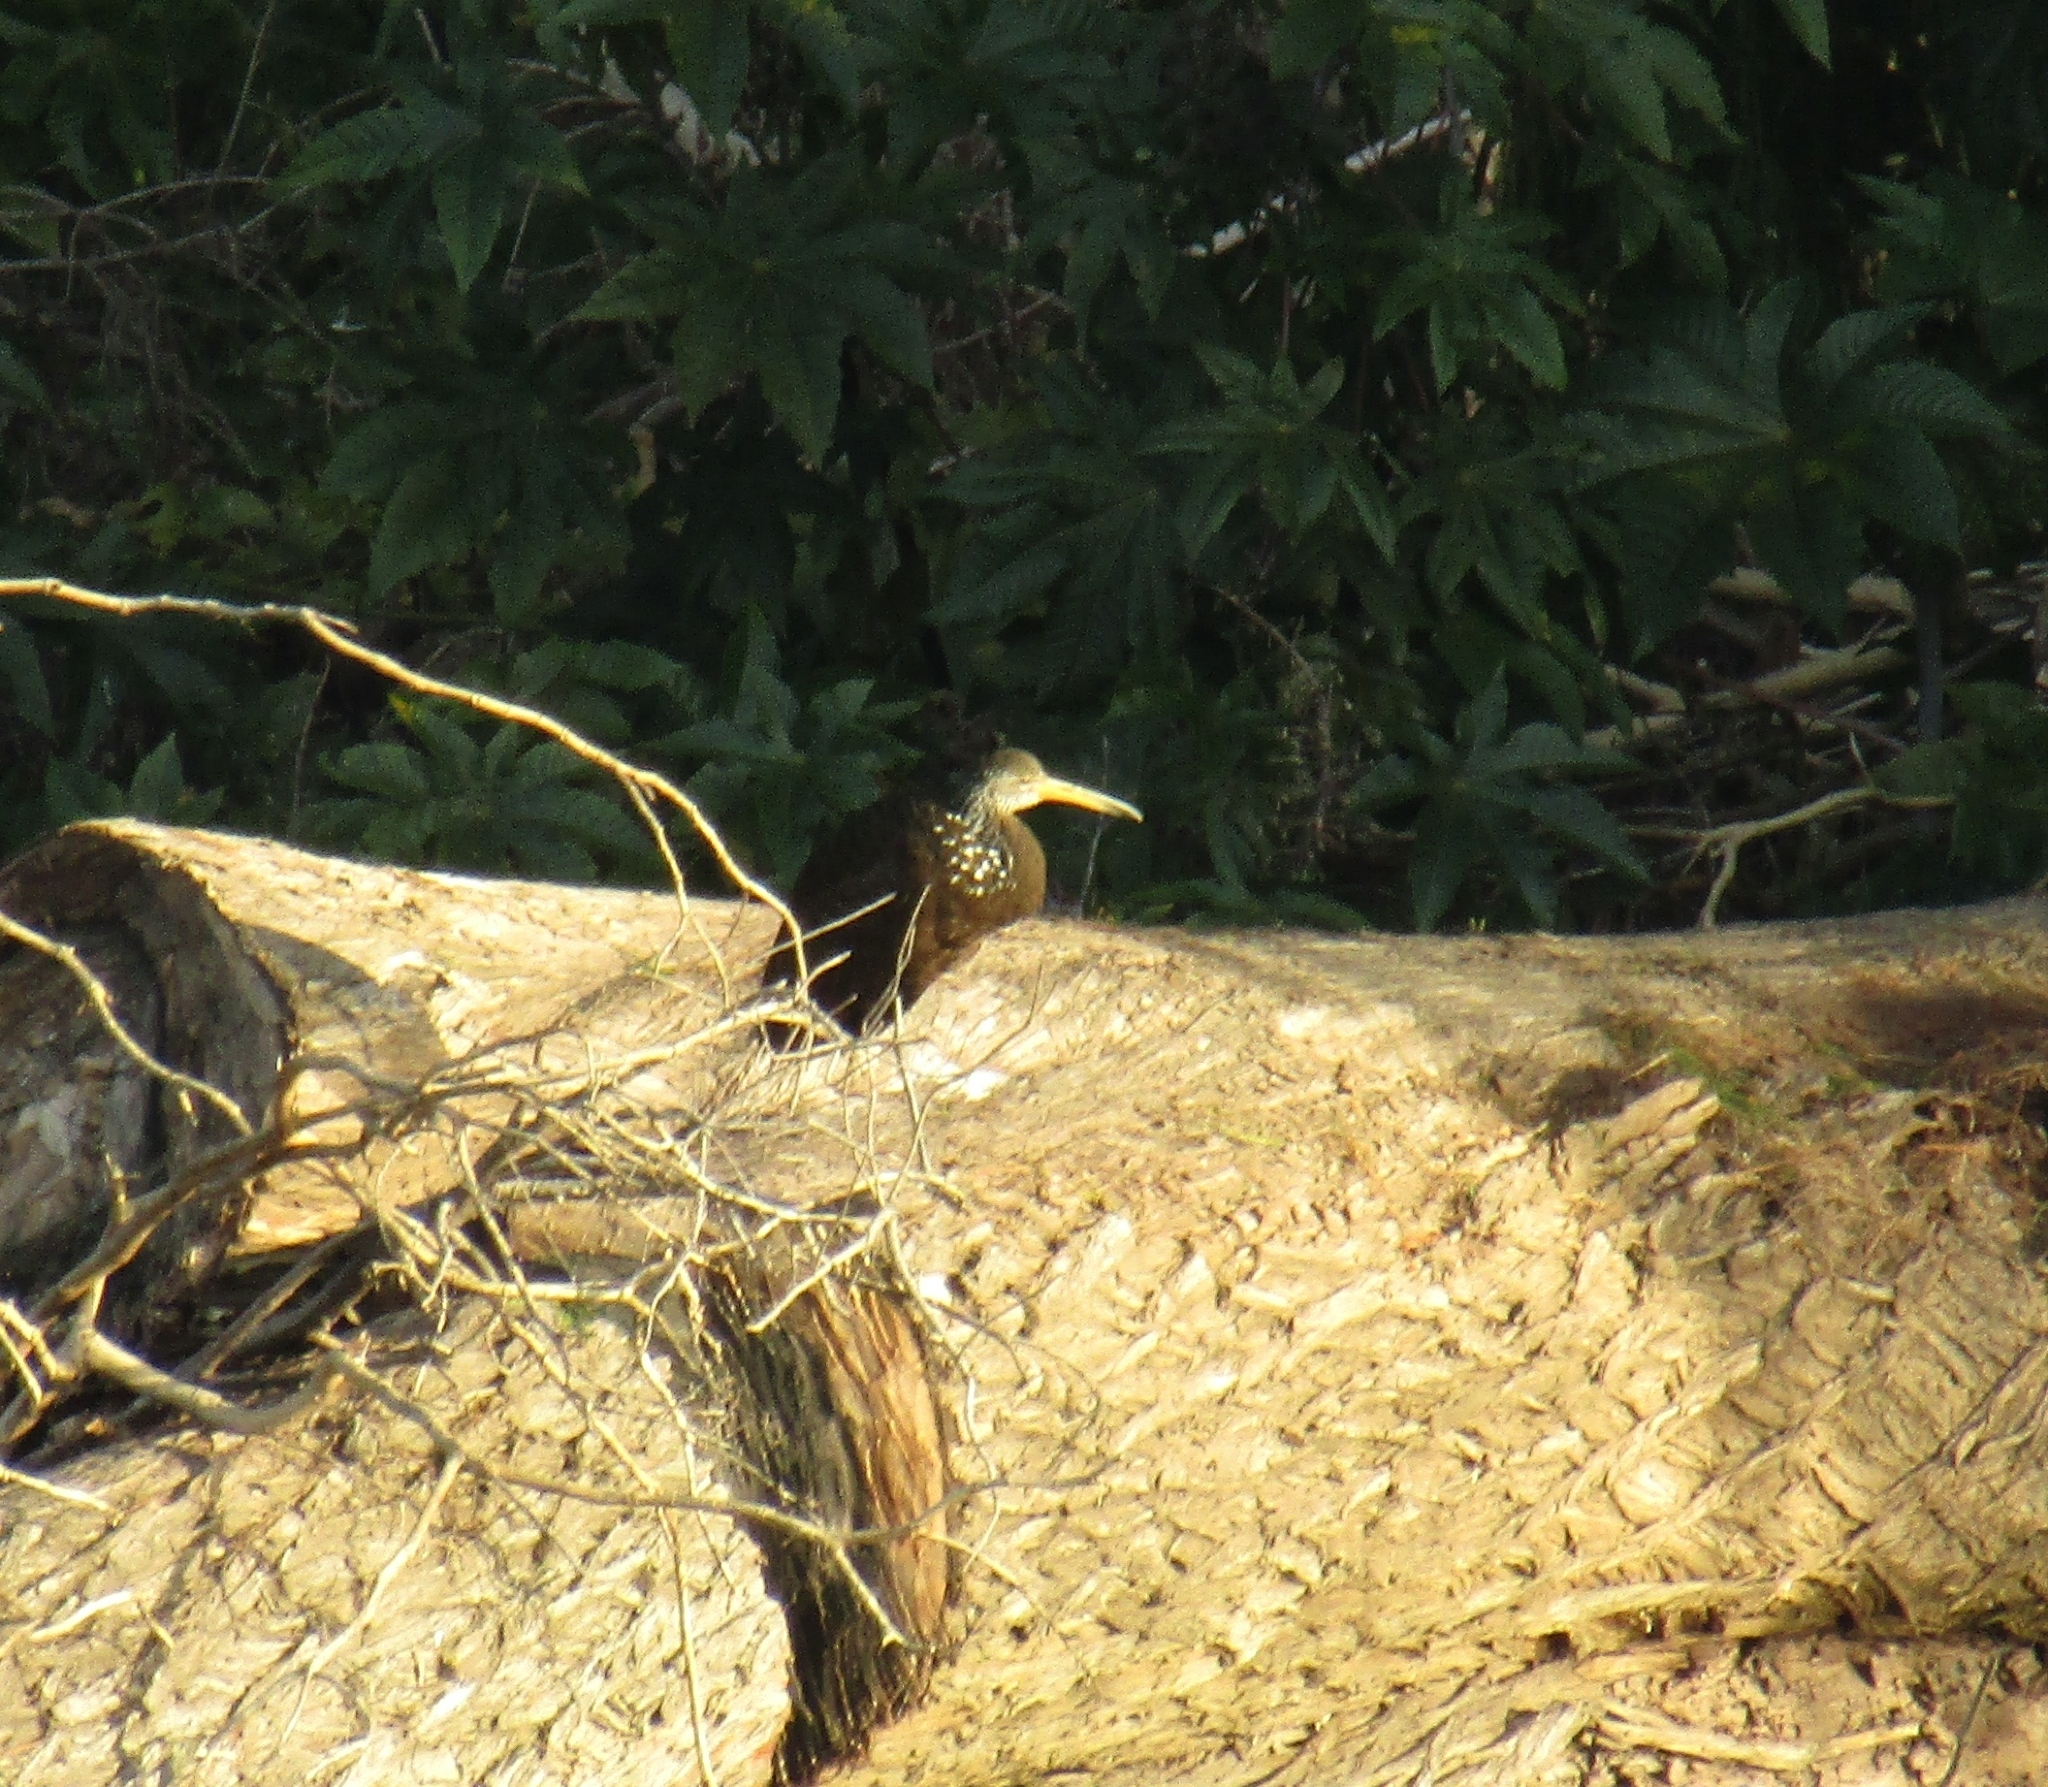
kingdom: Animalia
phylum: Chordata
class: Aves
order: Gruiformes
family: Aramidae
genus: Aramus
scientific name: Aramus guarauna
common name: Limpkin
